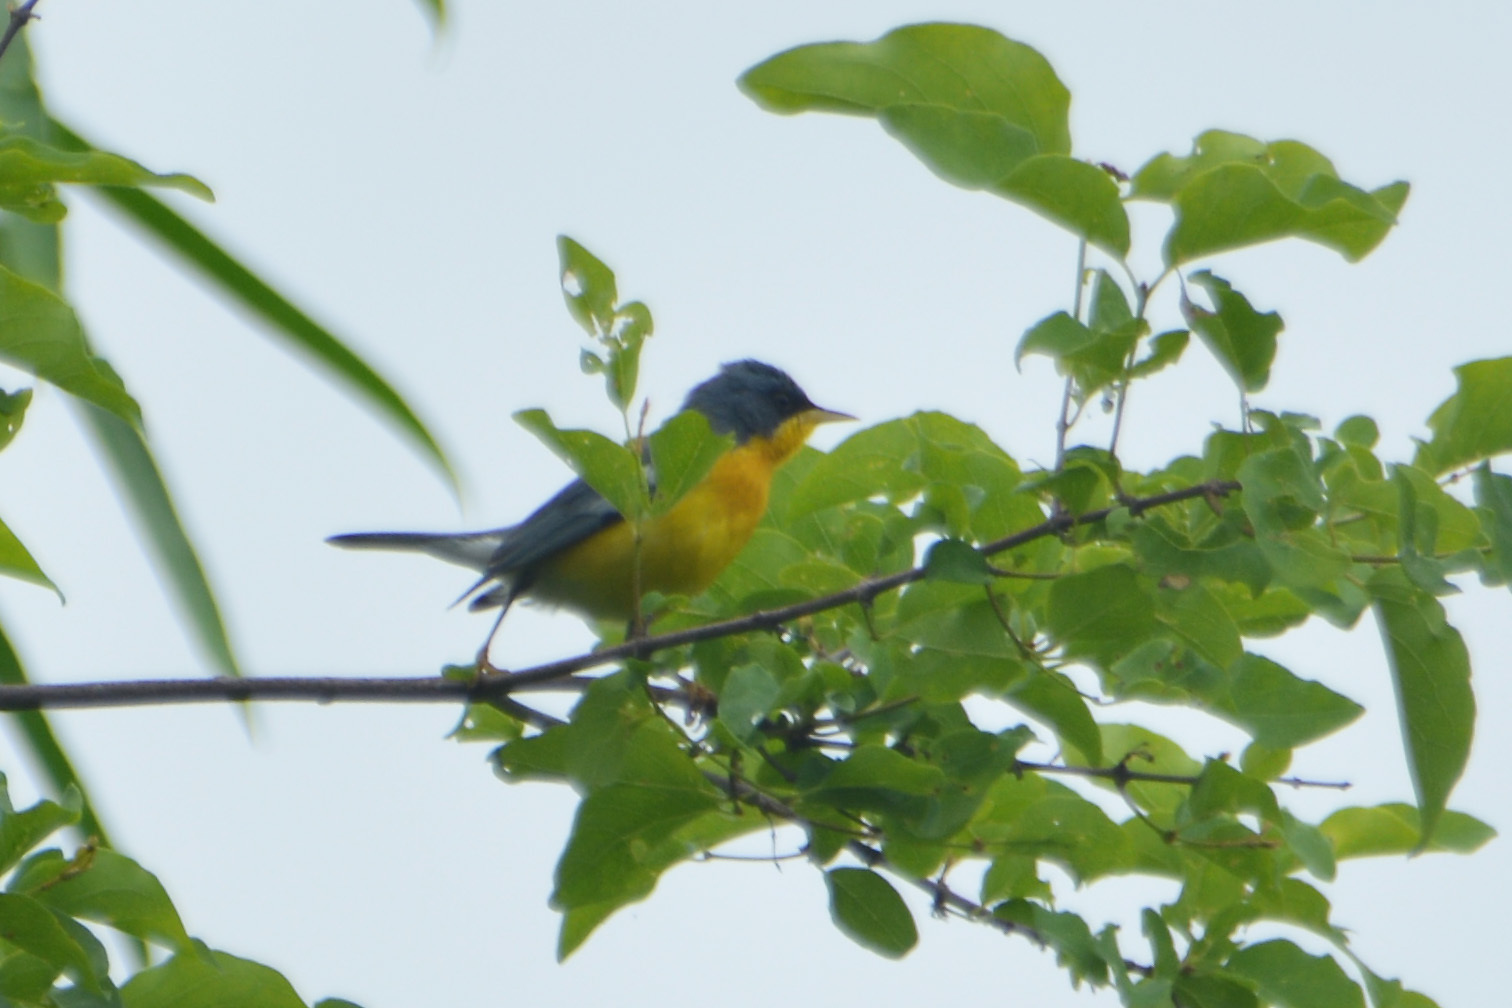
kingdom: Animalia
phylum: Chordata
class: Aves
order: Passeriformes
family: Parulidae
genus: Setophaga
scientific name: Setophaga pitiayumi
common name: Tropical parula
